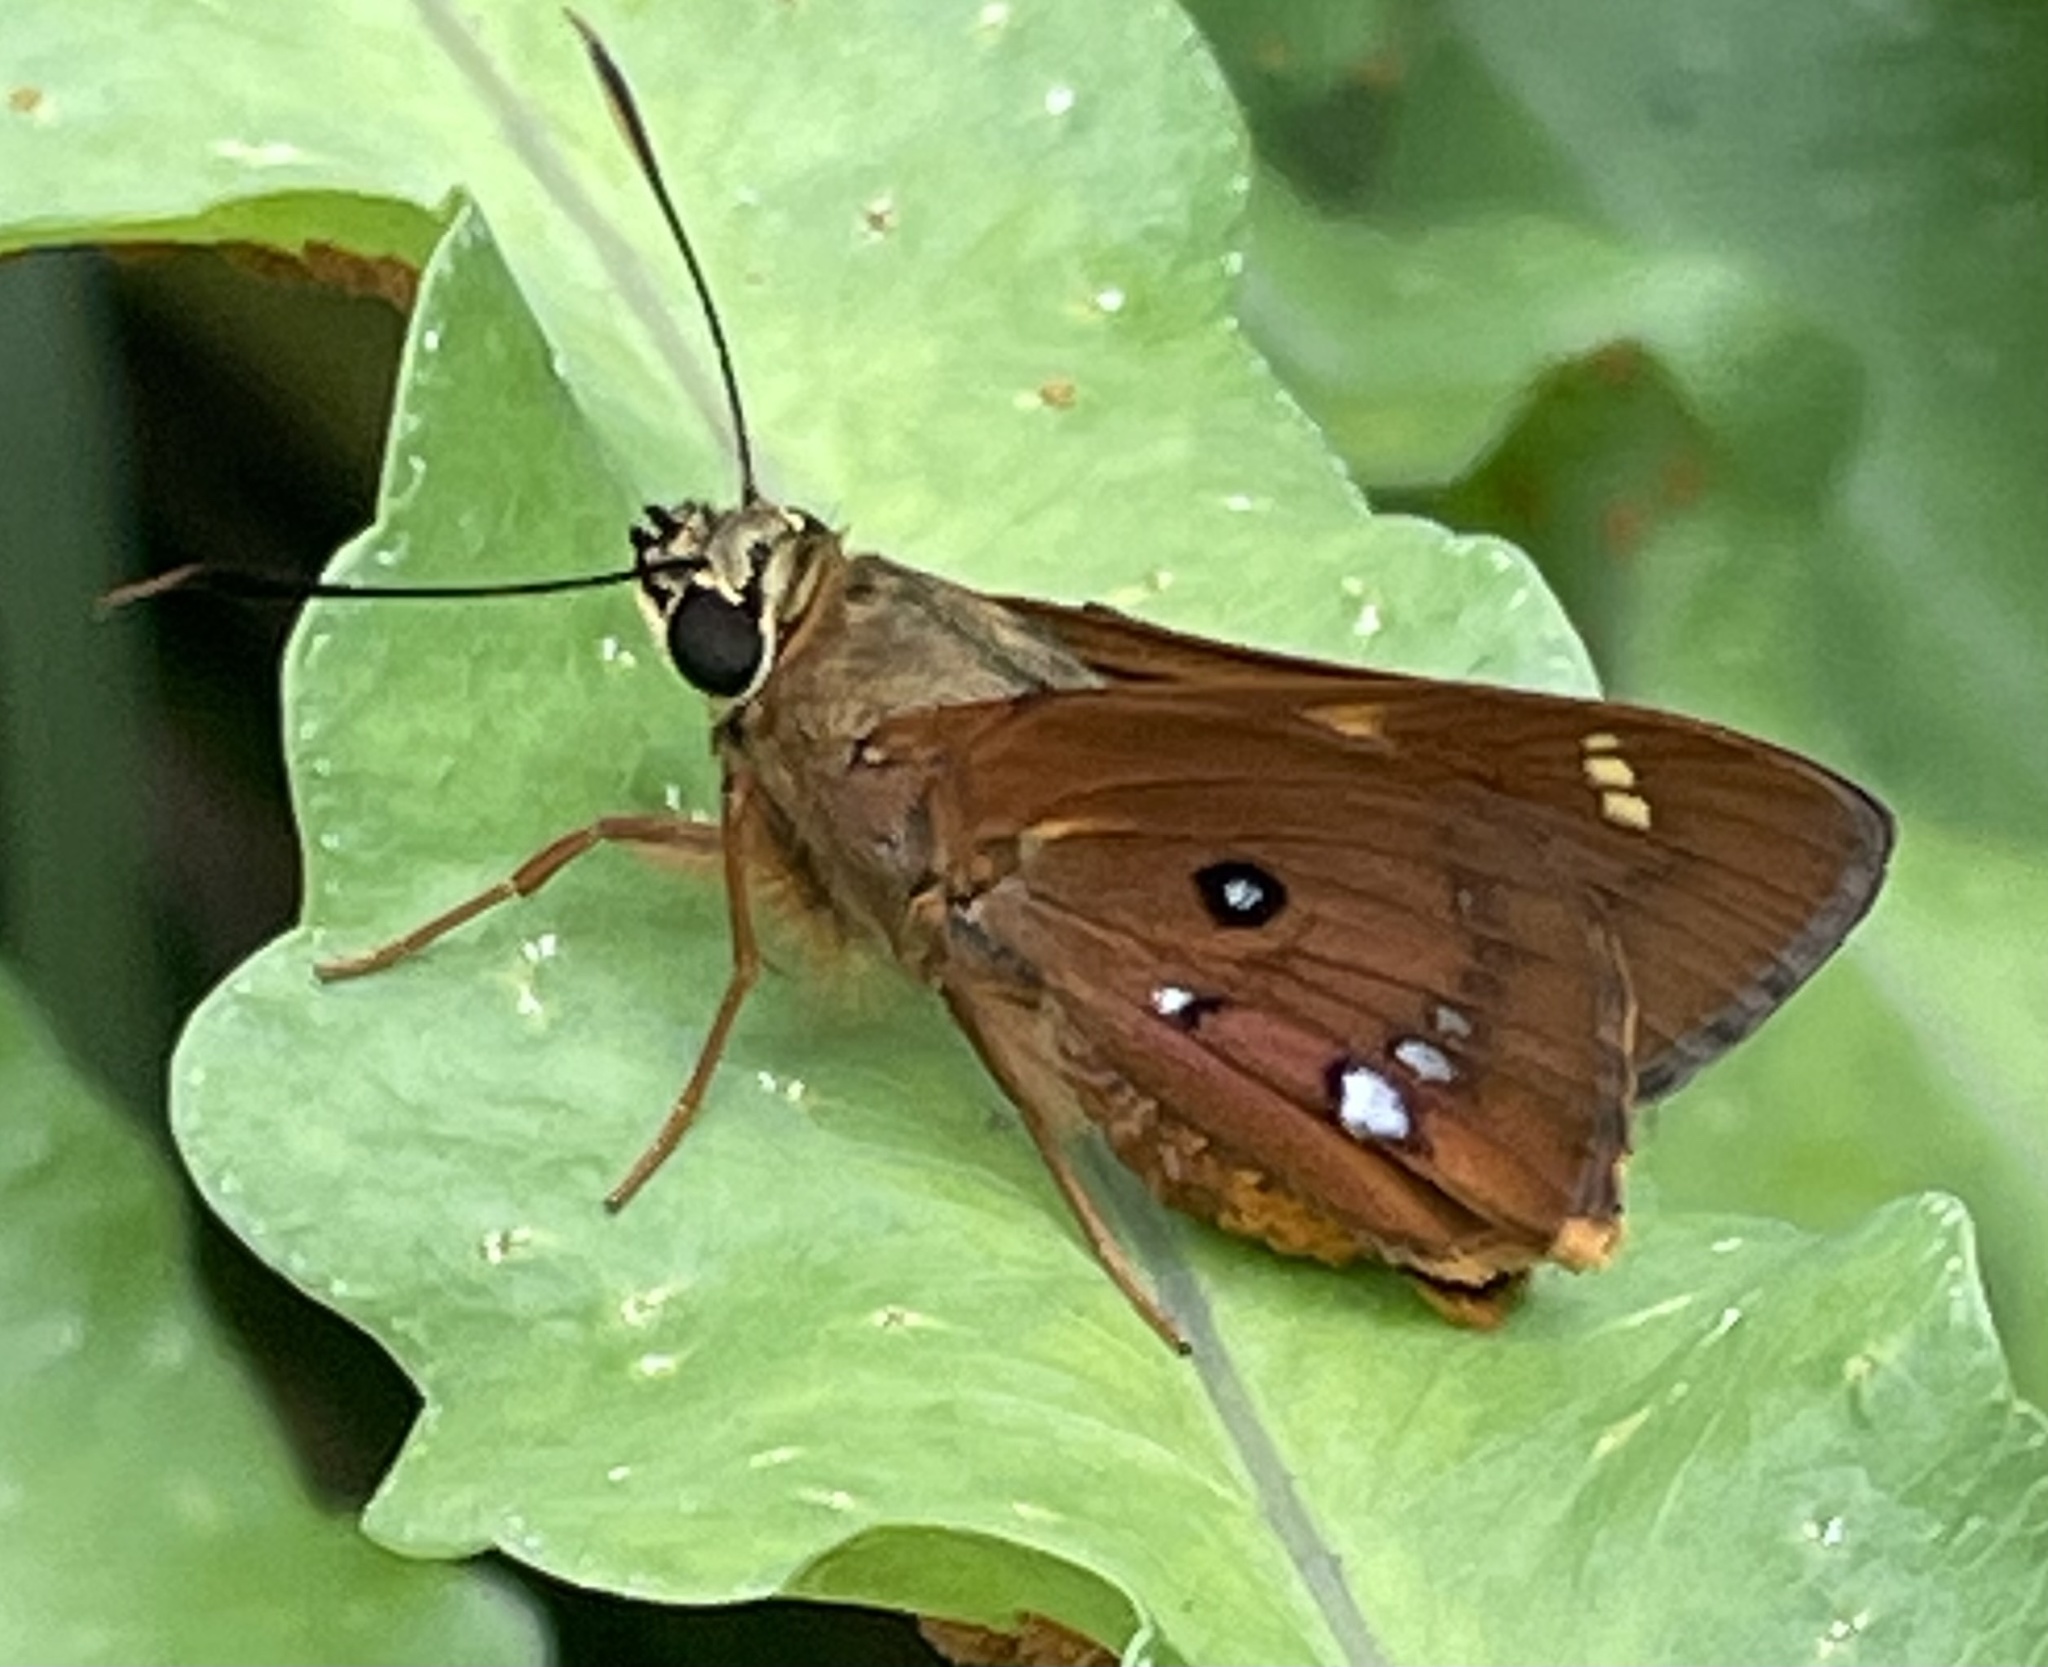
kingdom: Animalia
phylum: Arthropoda
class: Insecta
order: Lepidoptera
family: Hesperiidae
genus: Trapezites
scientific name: Trapezites symmomus
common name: Splendid ochre
